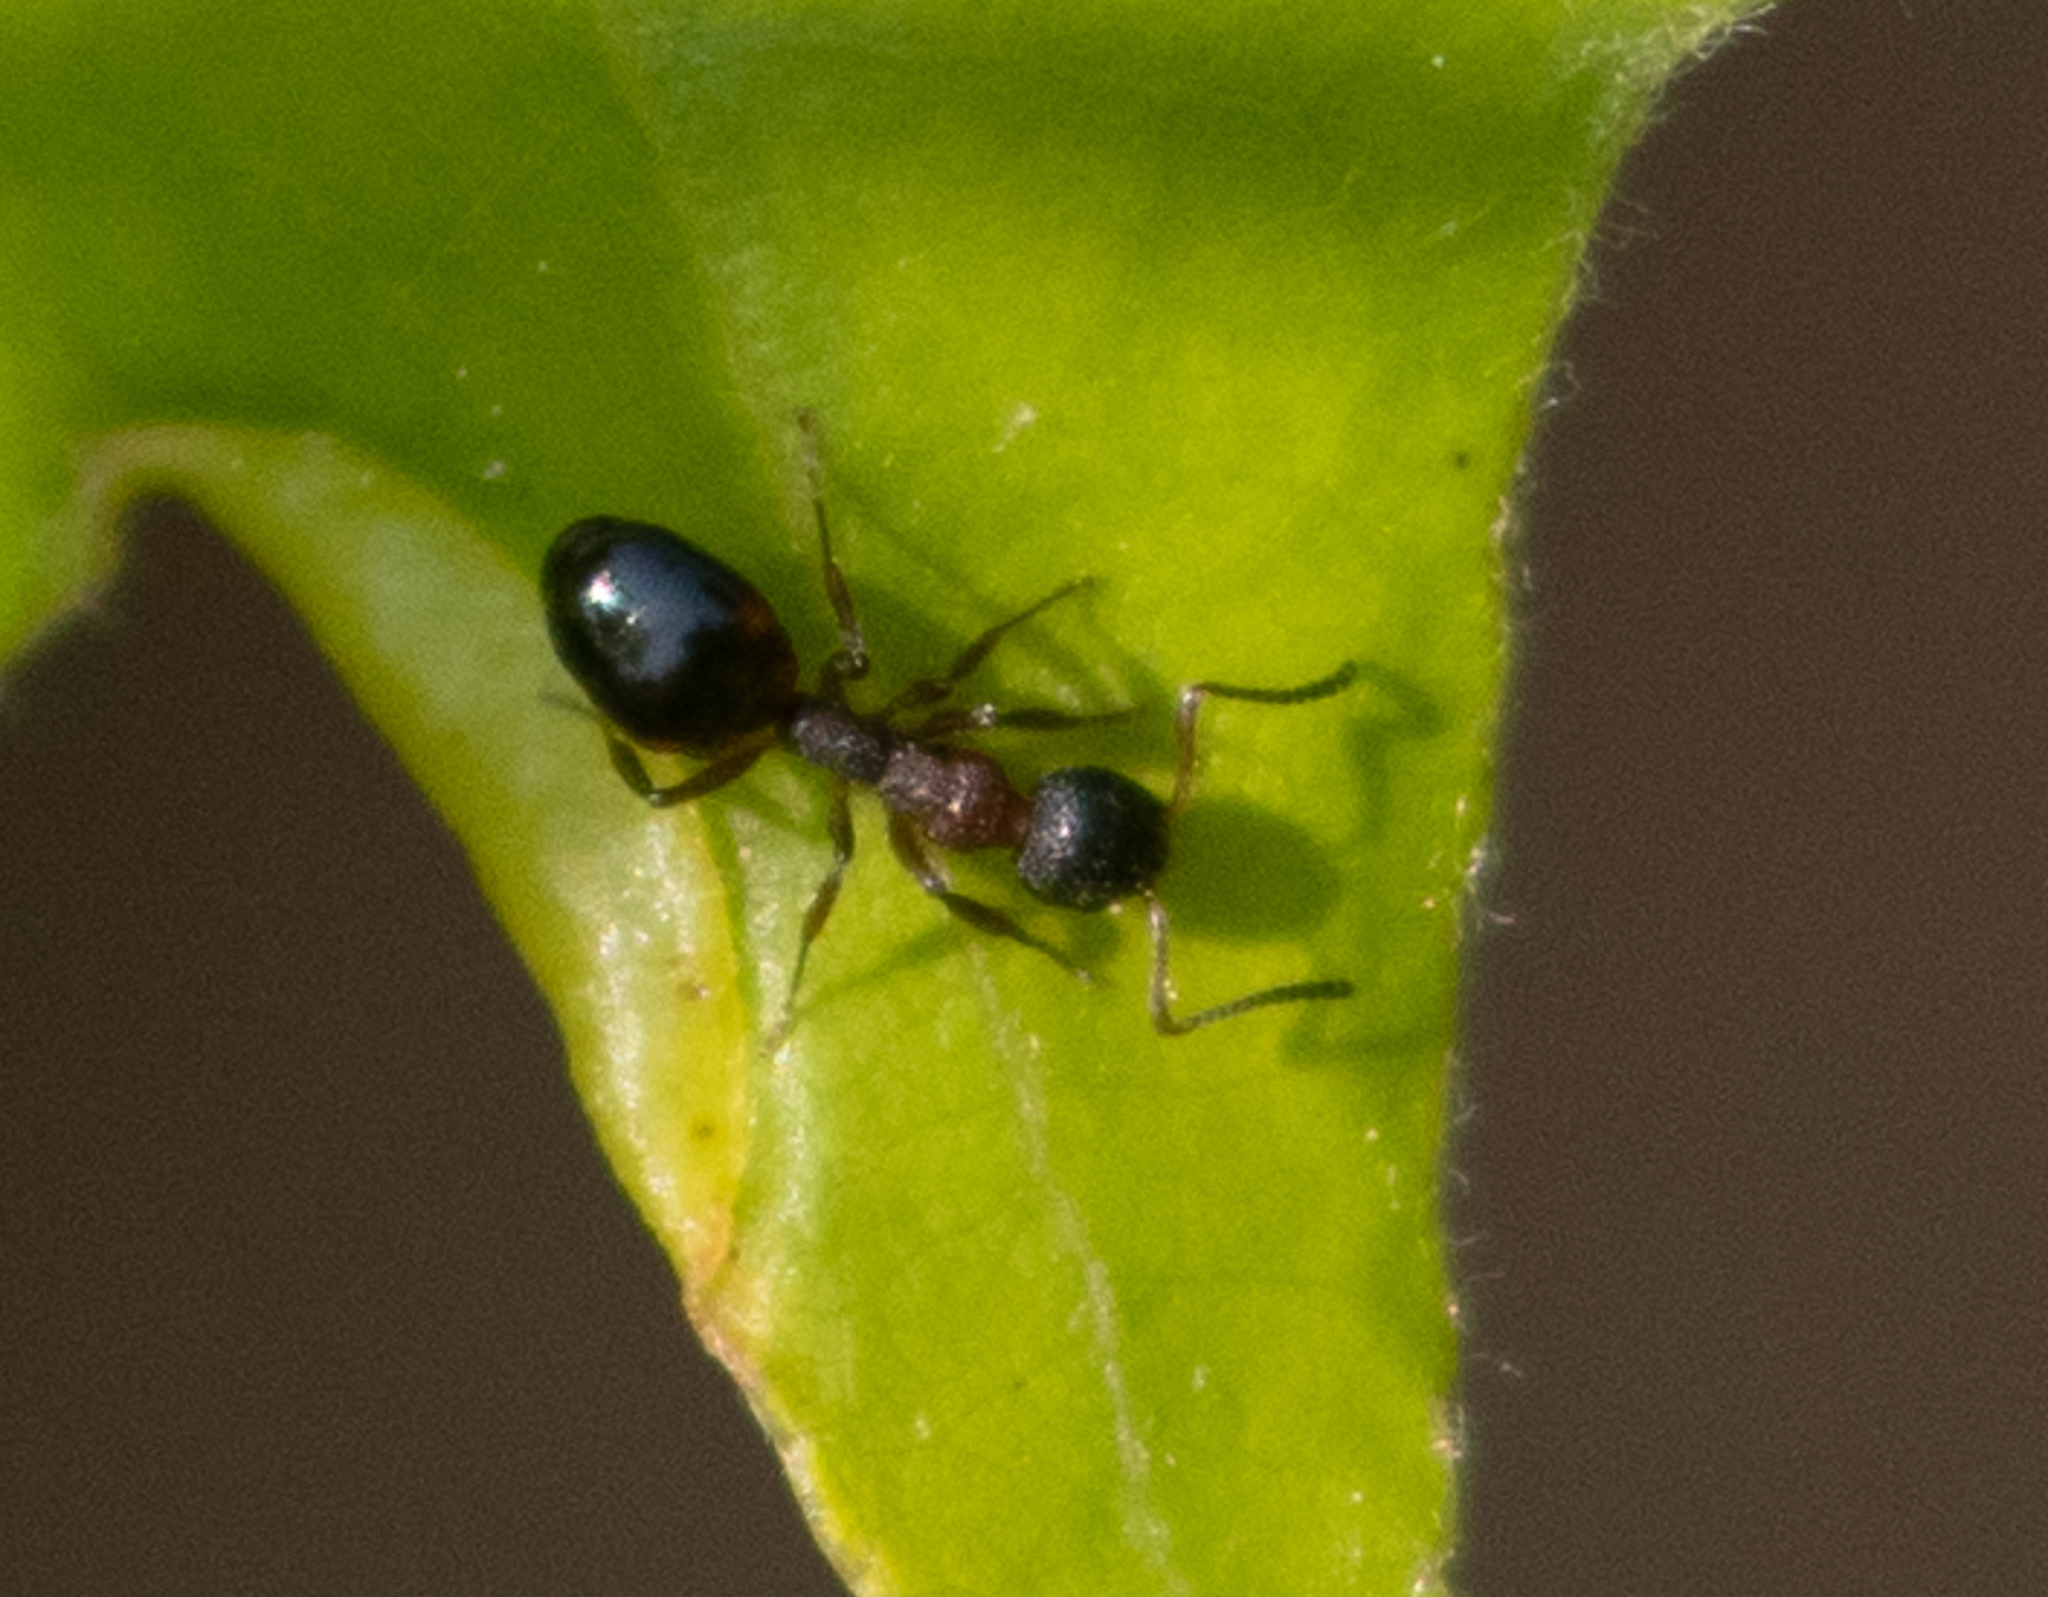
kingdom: Animalia
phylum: Arthropoda
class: Insecta
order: Hymenoptera
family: Formicidae
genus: Dolichoderus
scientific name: Dolichoderus plagiatus
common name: Mottled dolichoderus
